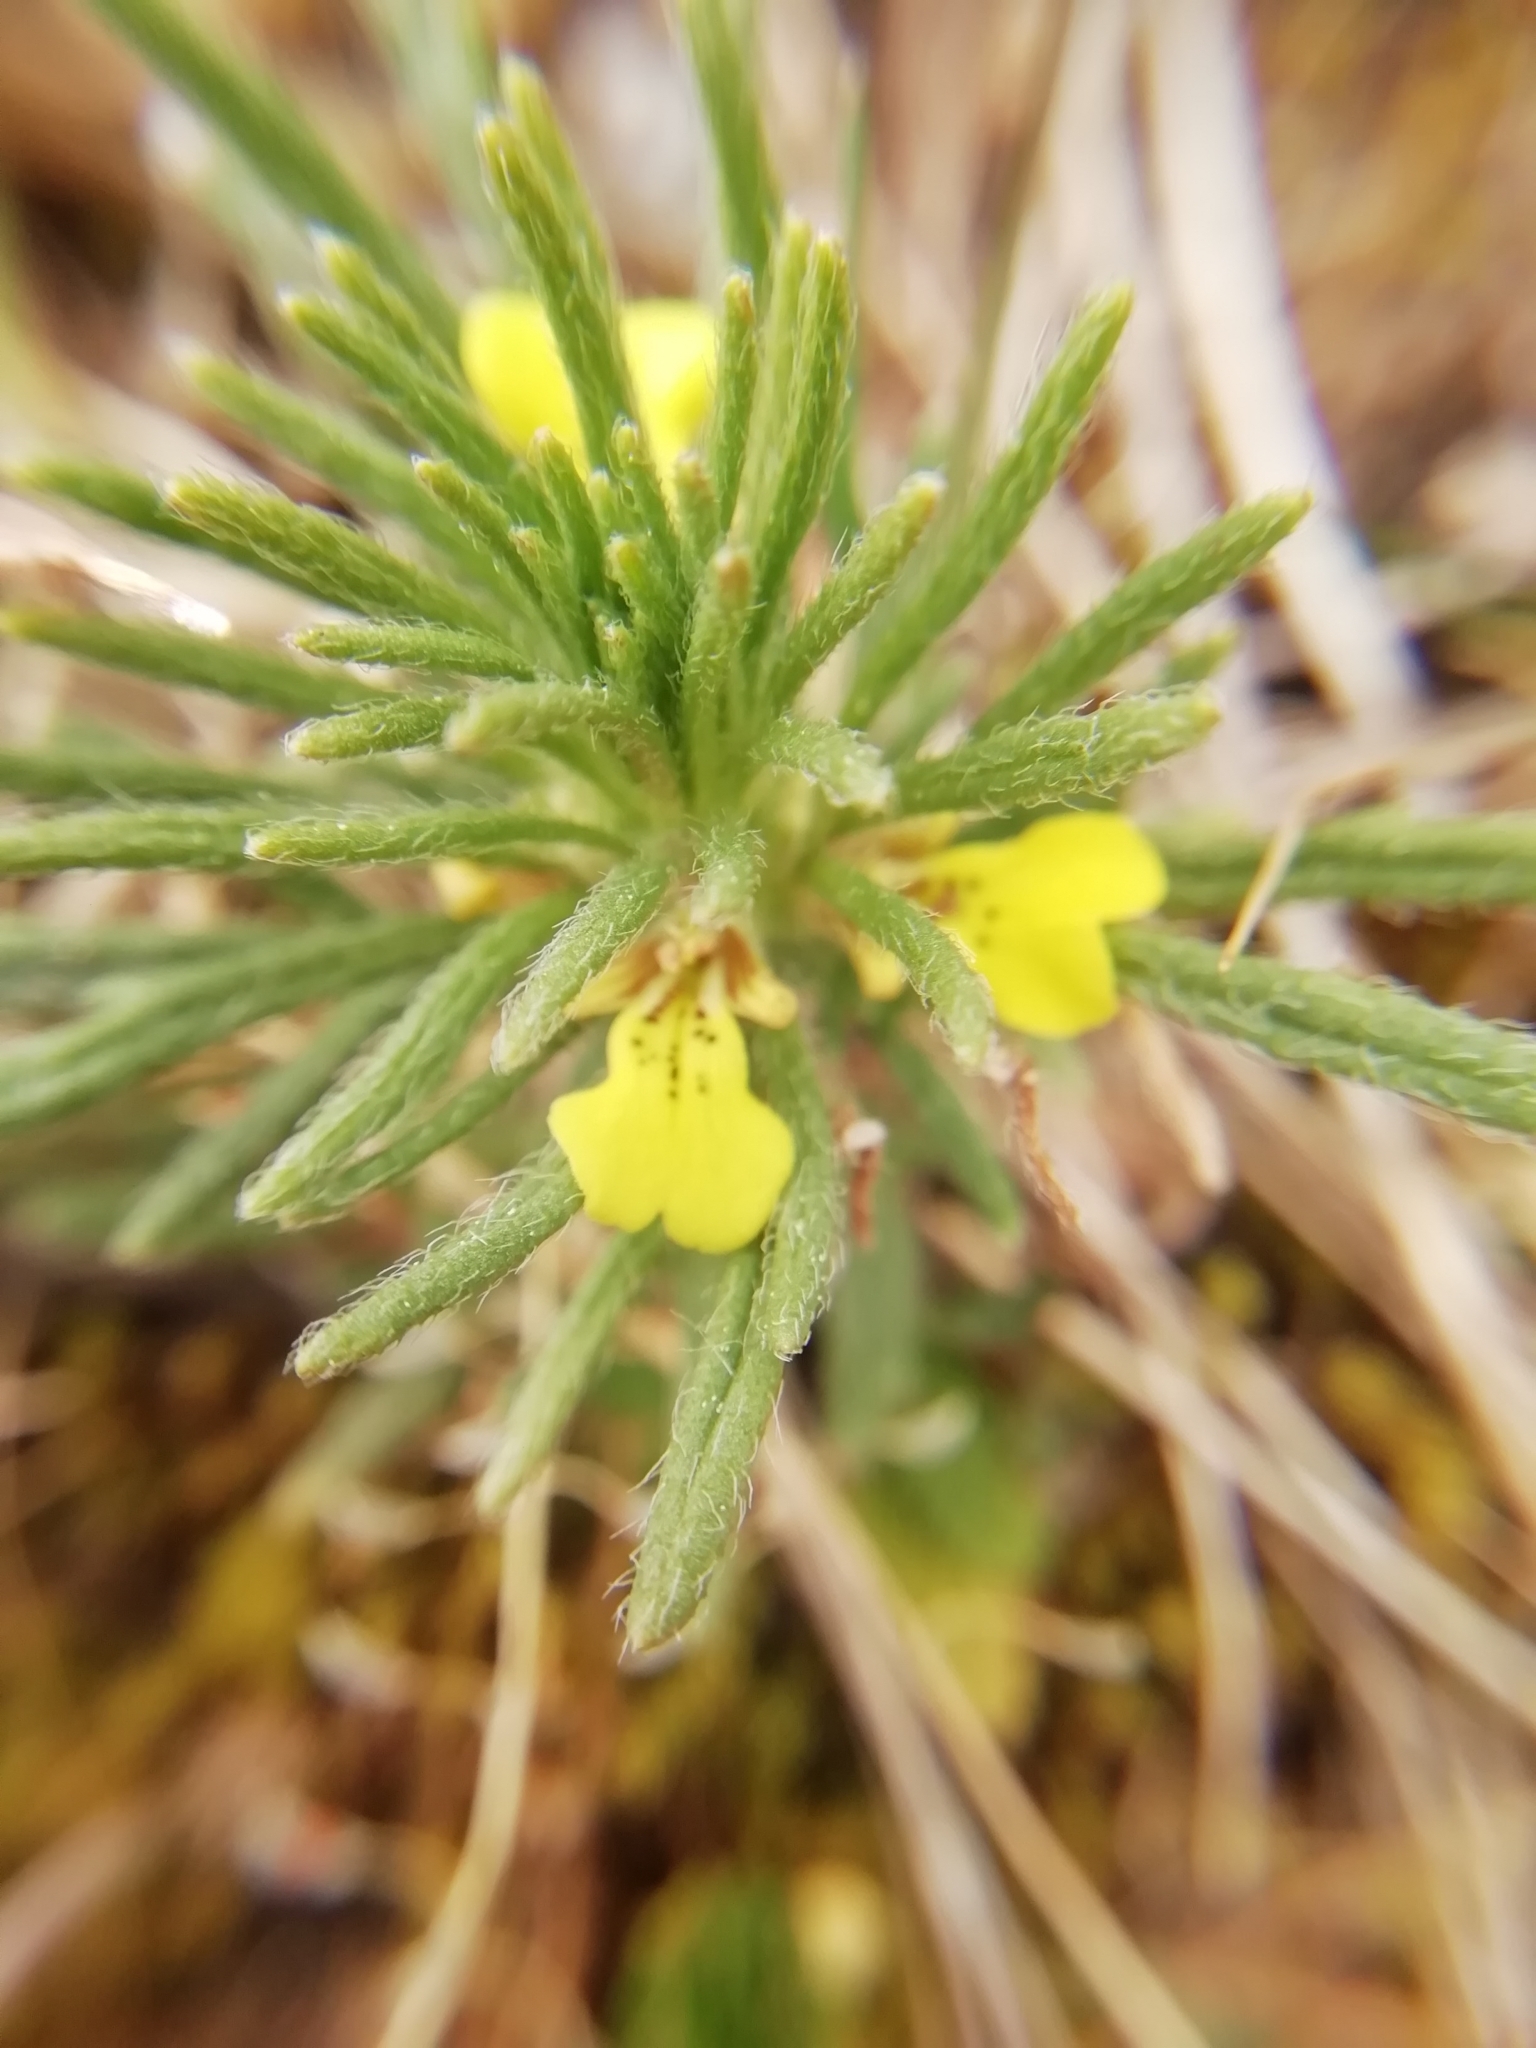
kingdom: Plantae
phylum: Tracheophyta
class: Magnoliopsida
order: Lamiales
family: Lamiaceae
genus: Ajuga
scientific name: Ajuga chamaepitys
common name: Ground-pine
